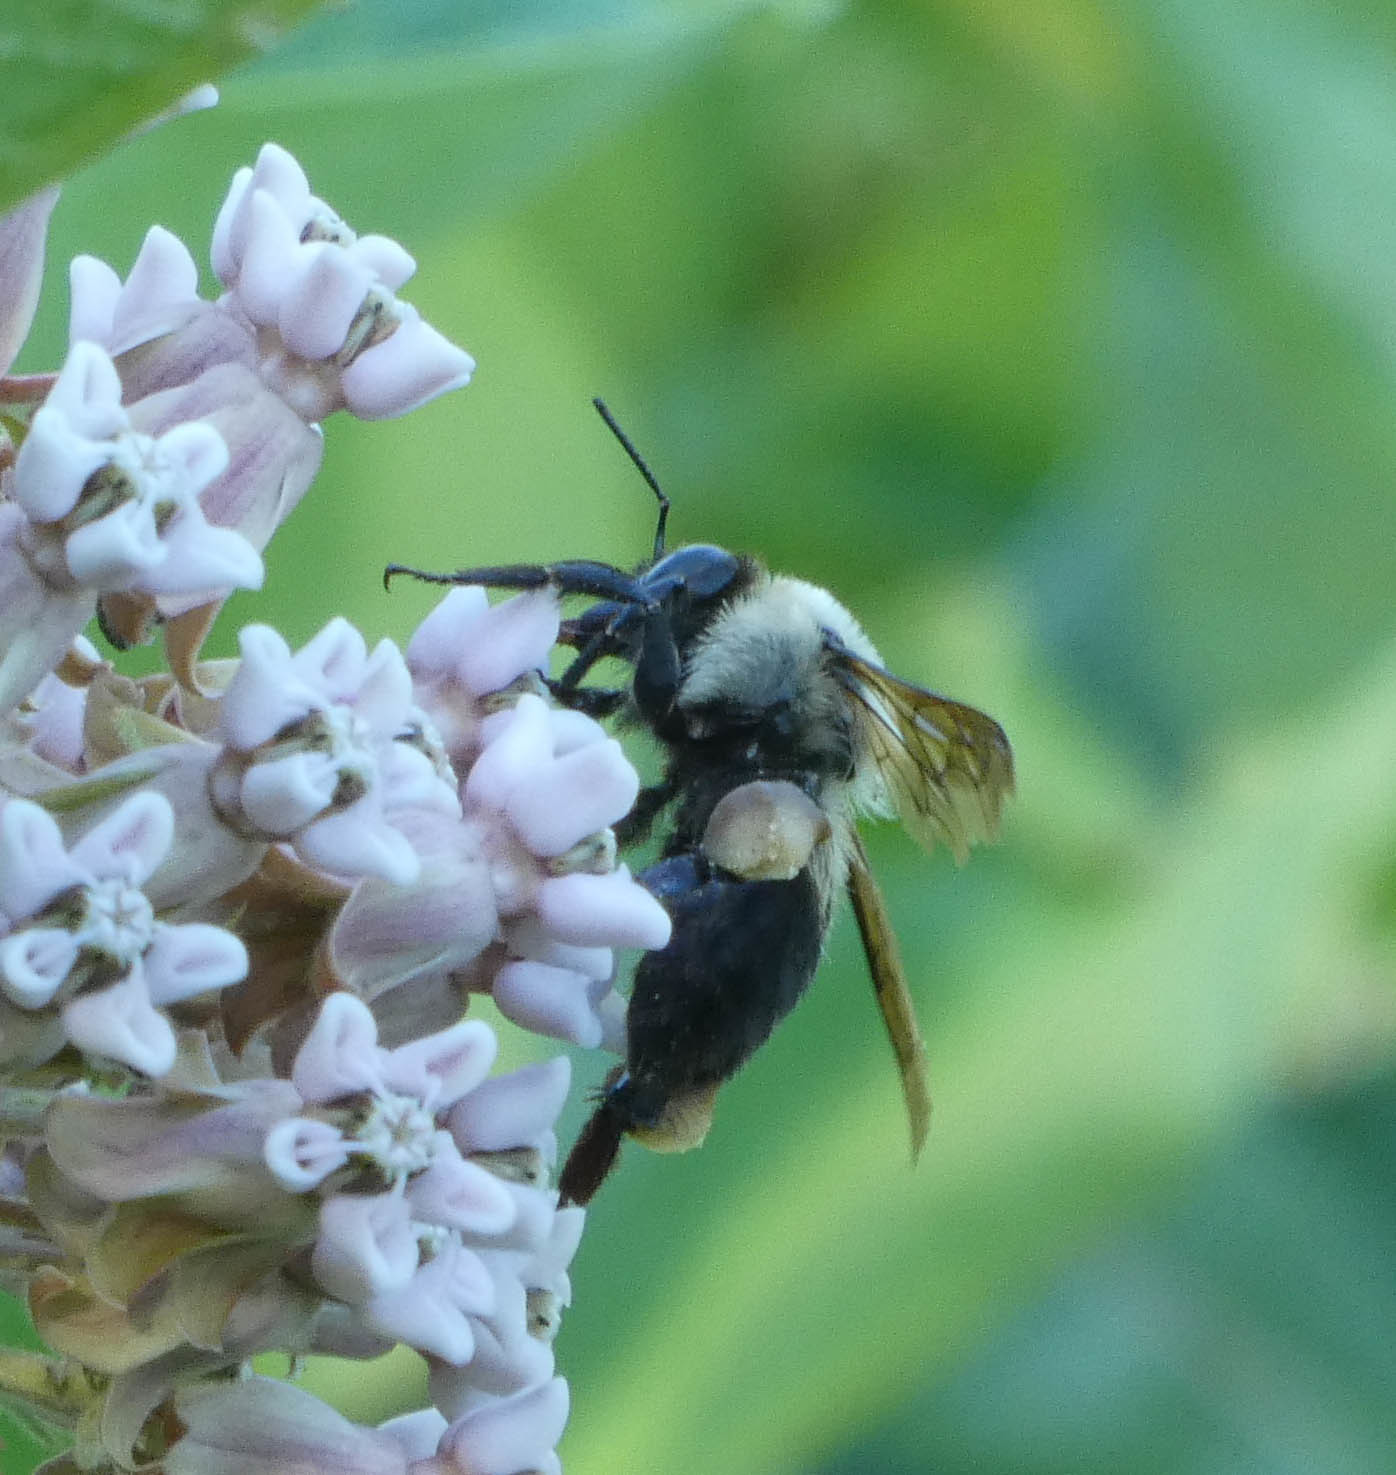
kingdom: Animalia
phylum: Arthropoda
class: Insecta
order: Hymenoptera
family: Apidae
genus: Bombus
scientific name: Bombus griseocollis
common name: Brown-belted bumble bee
